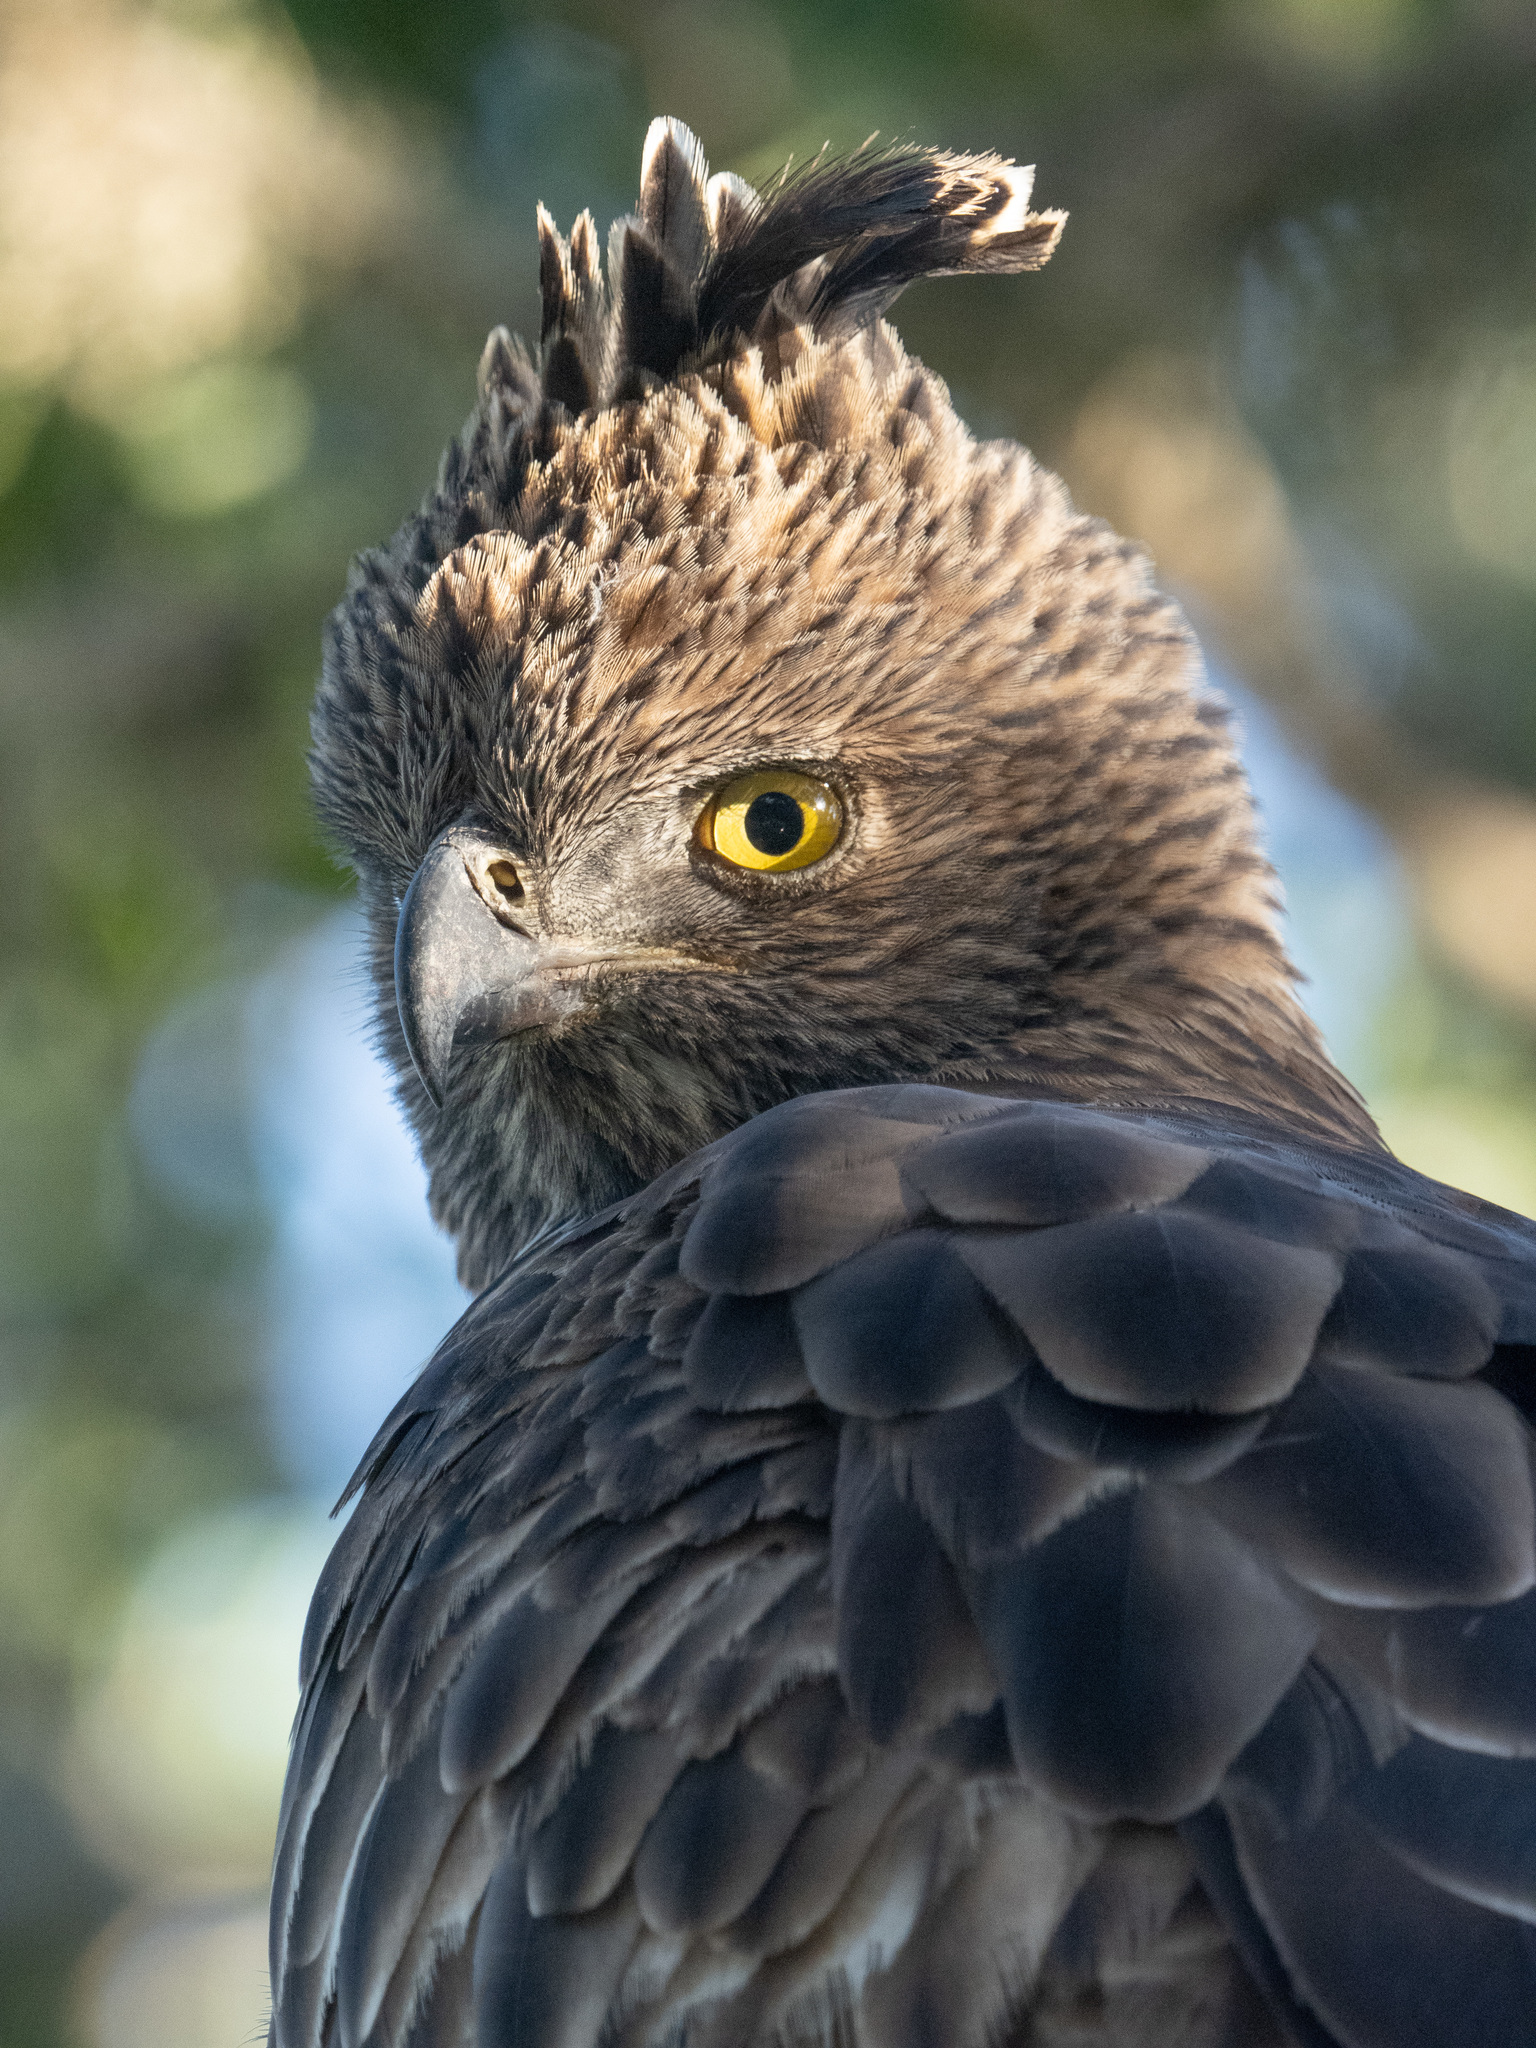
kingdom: Animalia
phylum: Chordata
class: Aves
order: Accipitriformes
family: Accipitridae
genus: Nisaetus
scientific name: Nisaetus cirrhatus
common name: Changeable hawk-eagle
